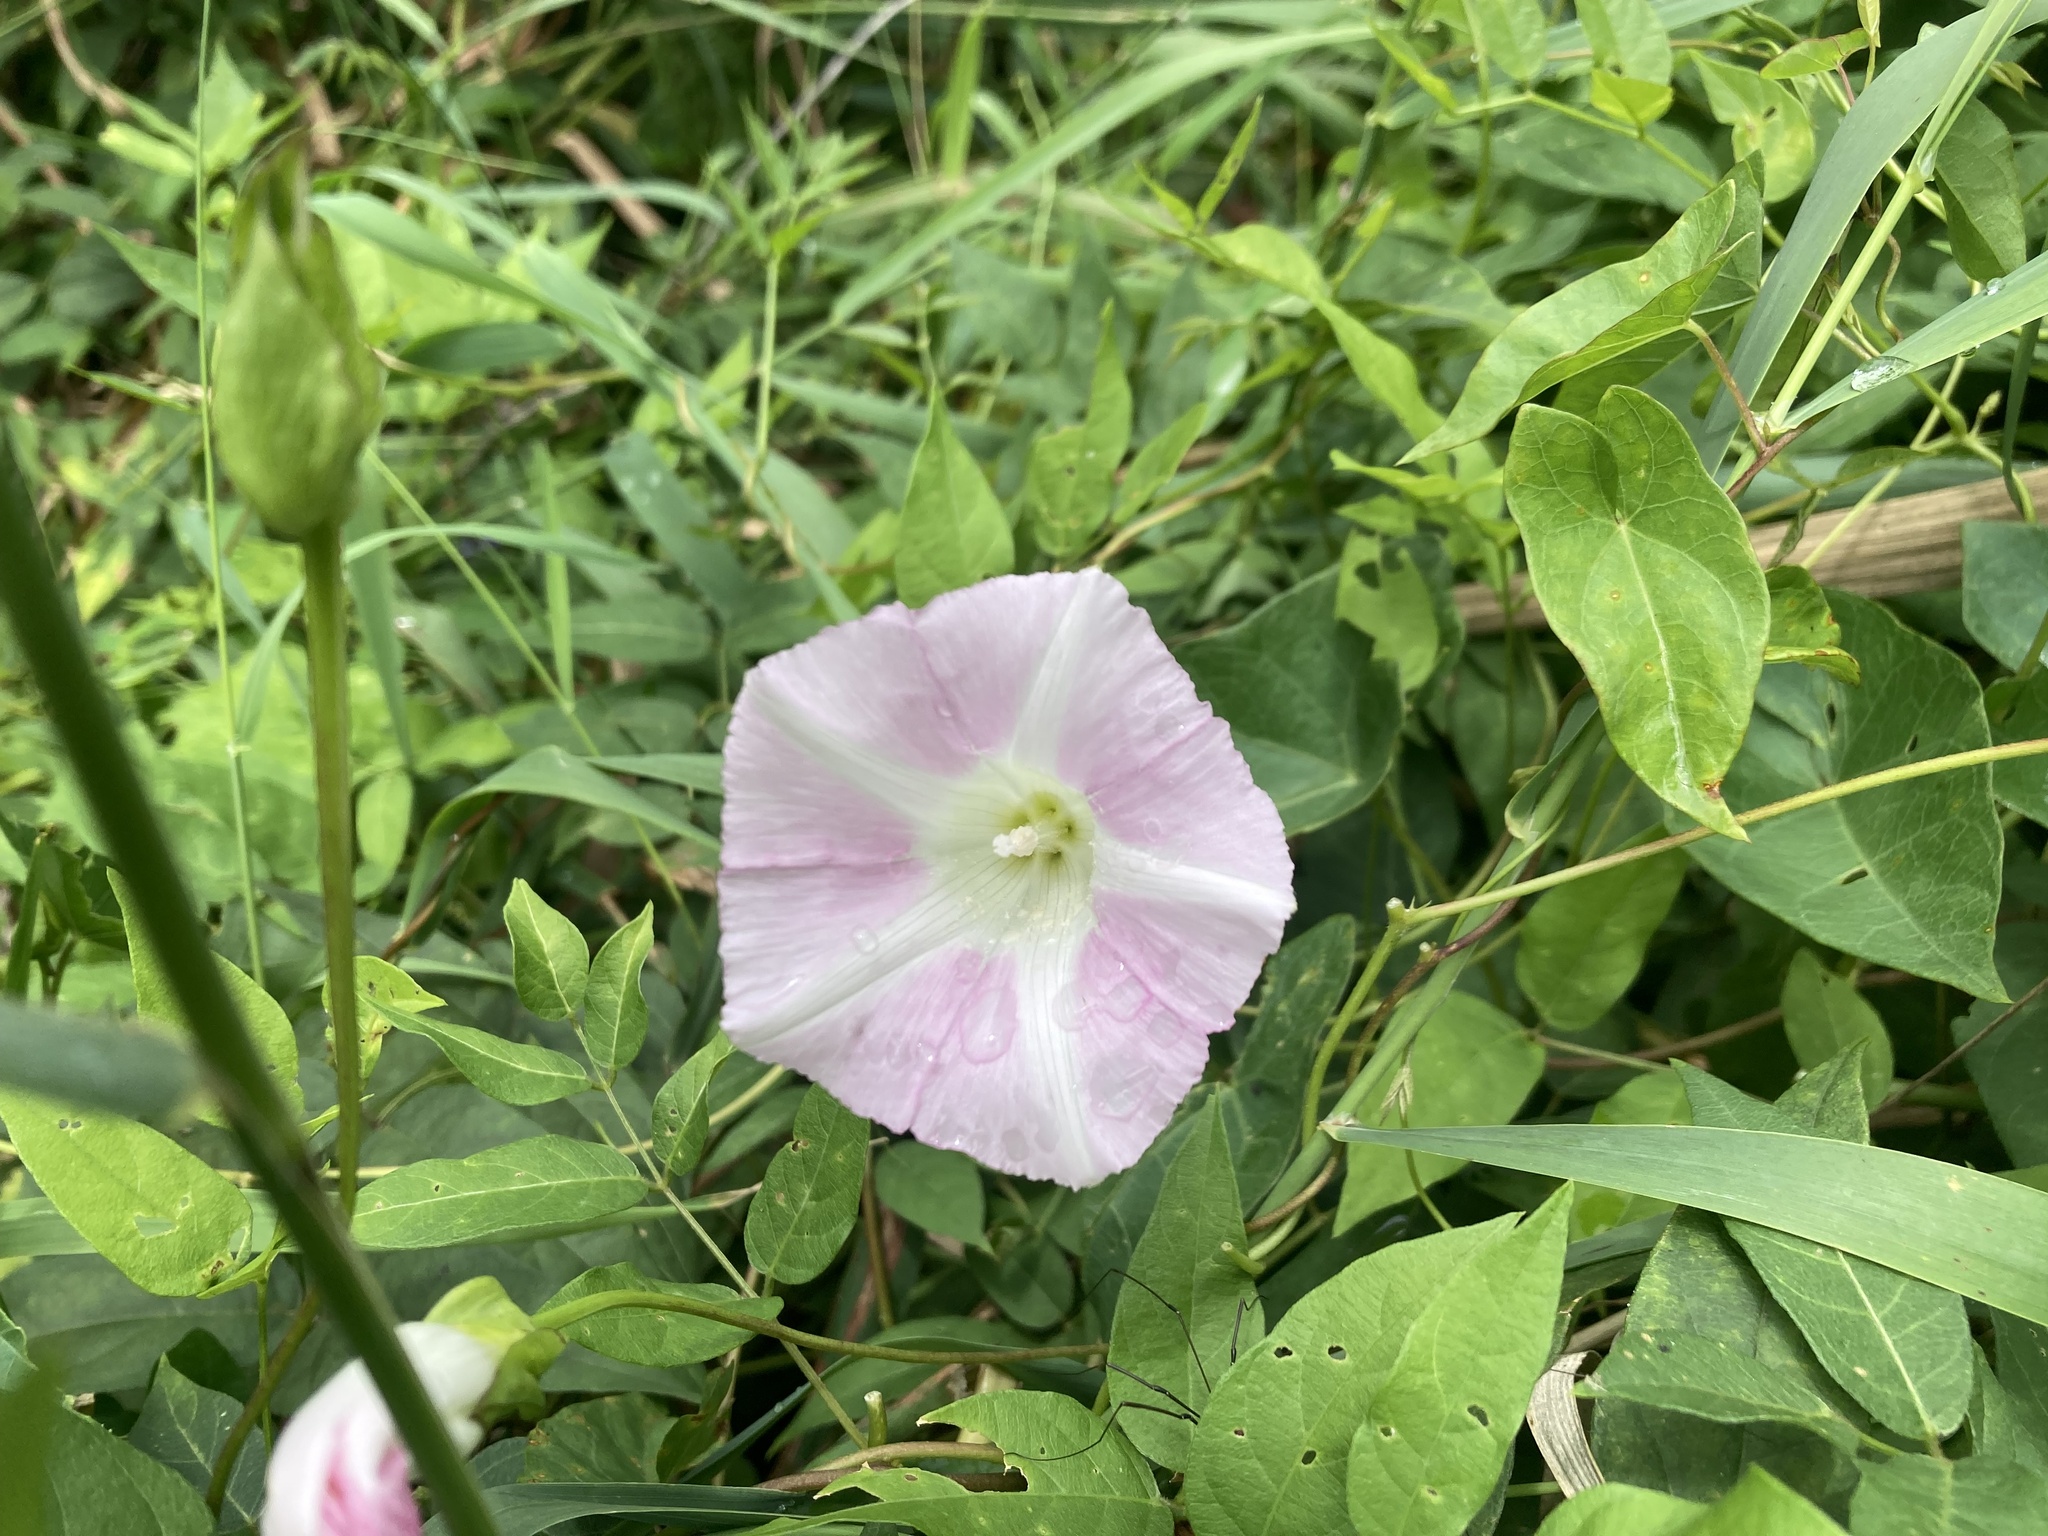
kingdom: Plantae
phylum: Tracheophyta
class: Magnoliopsida
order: Solanales
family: Convolvulaceae
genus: Calystegia
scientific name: Calystegia sepium
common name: Hedge bindweed
